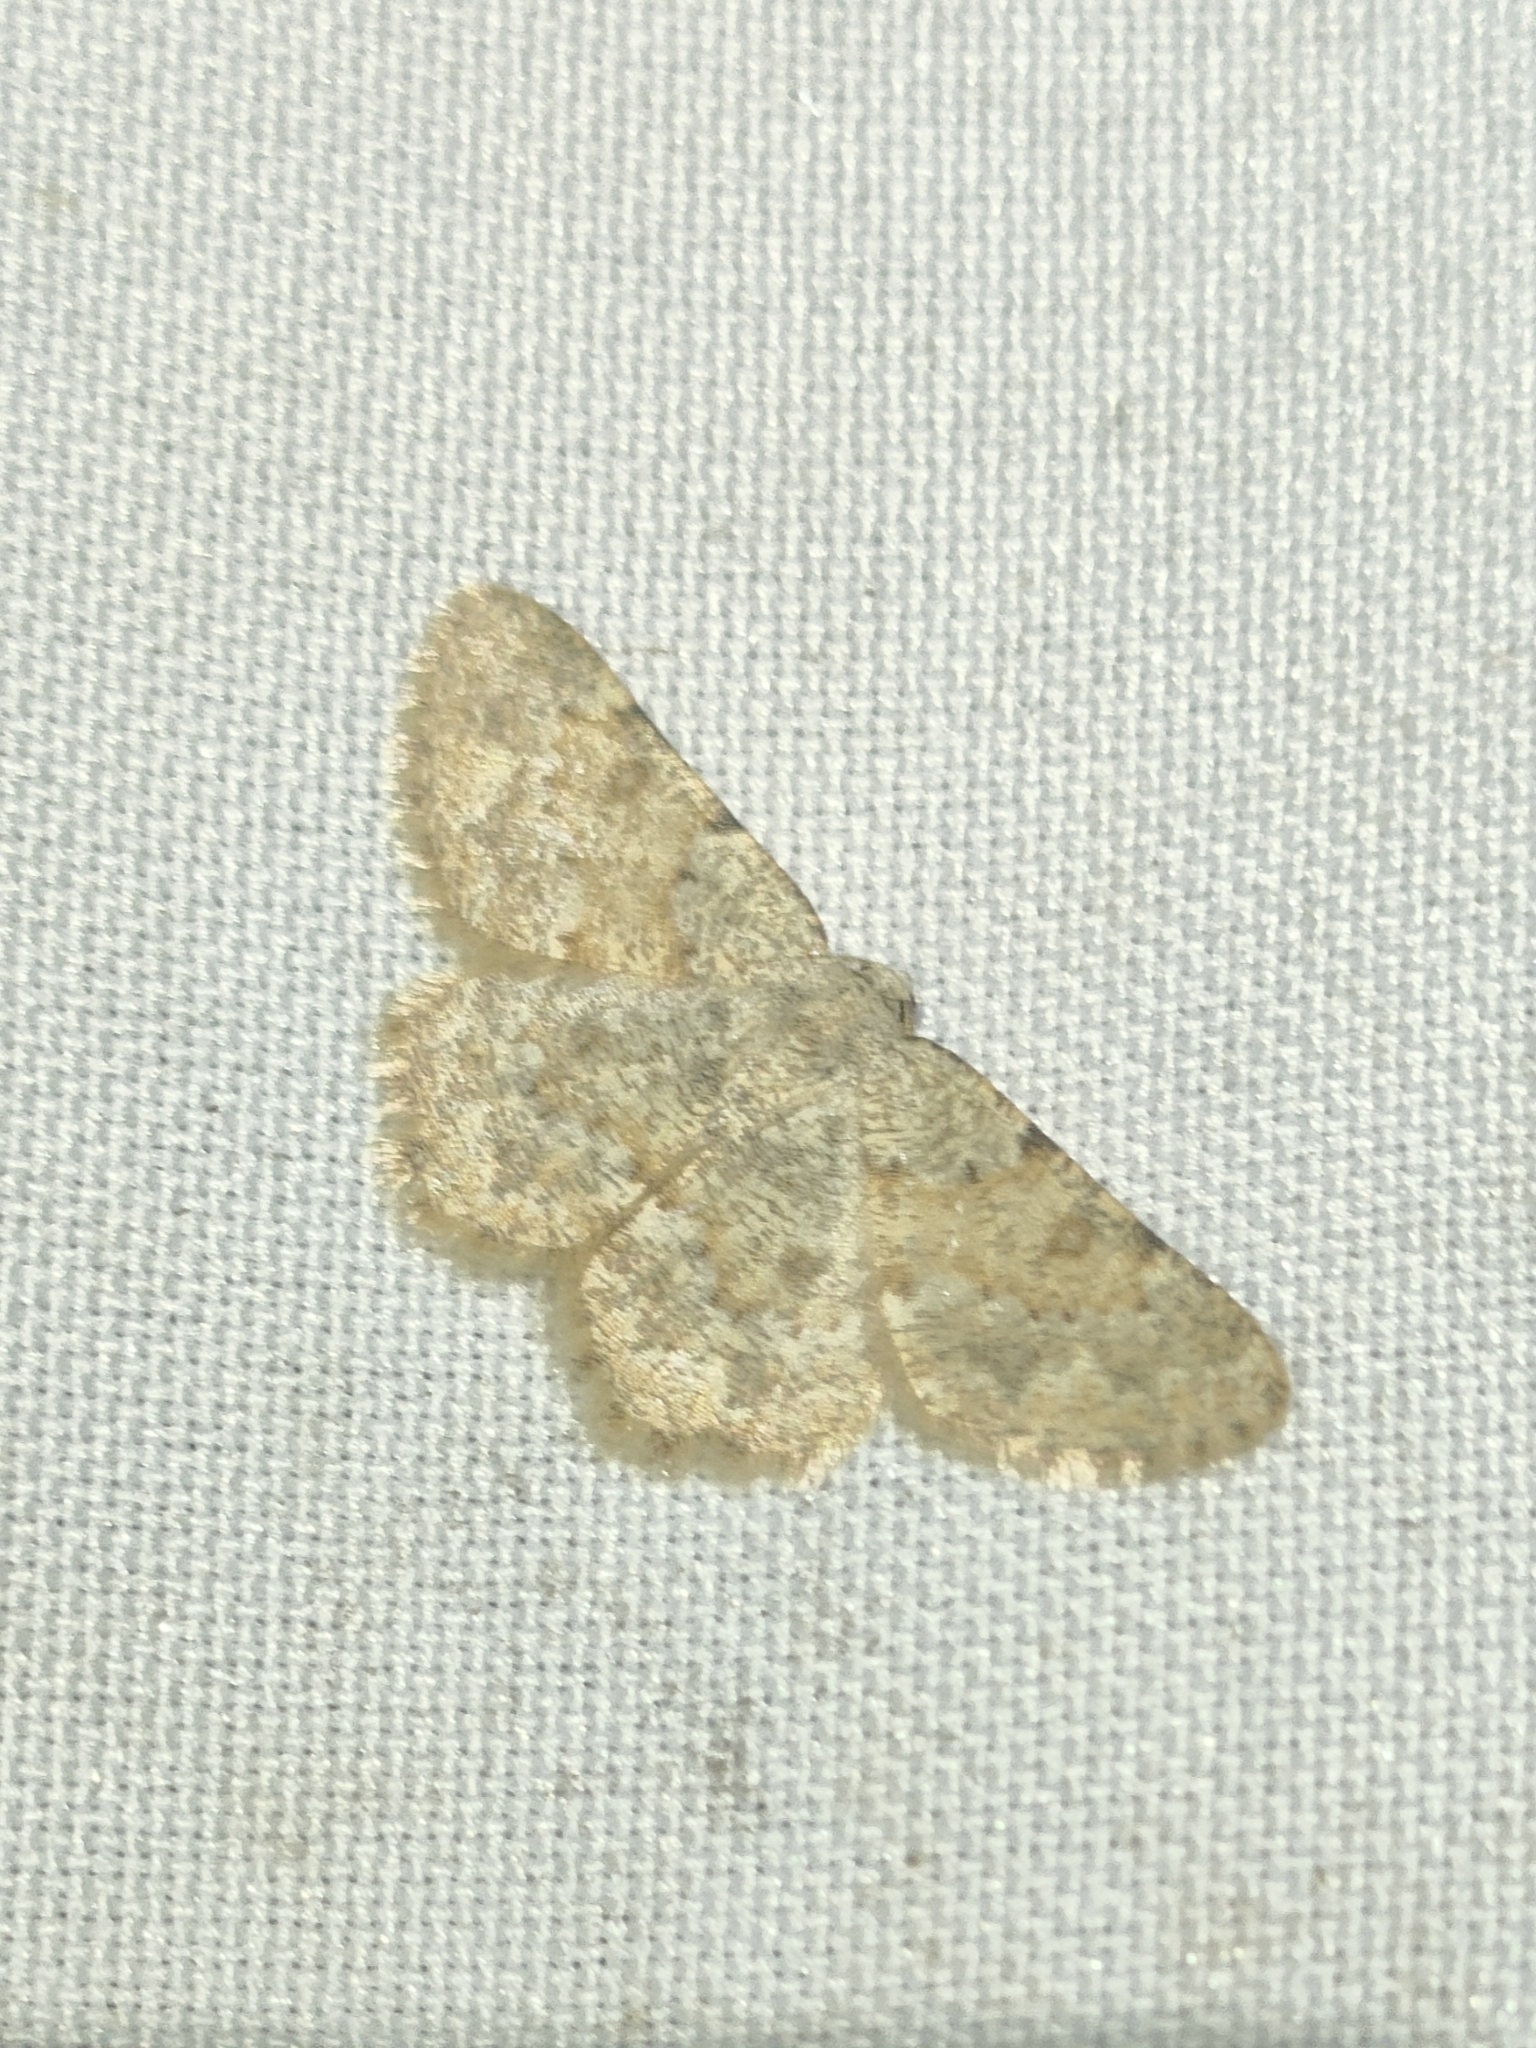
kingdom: Animalia
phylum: Arthropoda
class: Insecta
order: Lepidoptera
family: Geometridae
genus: Charissa
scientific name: Charissa mucidaria
